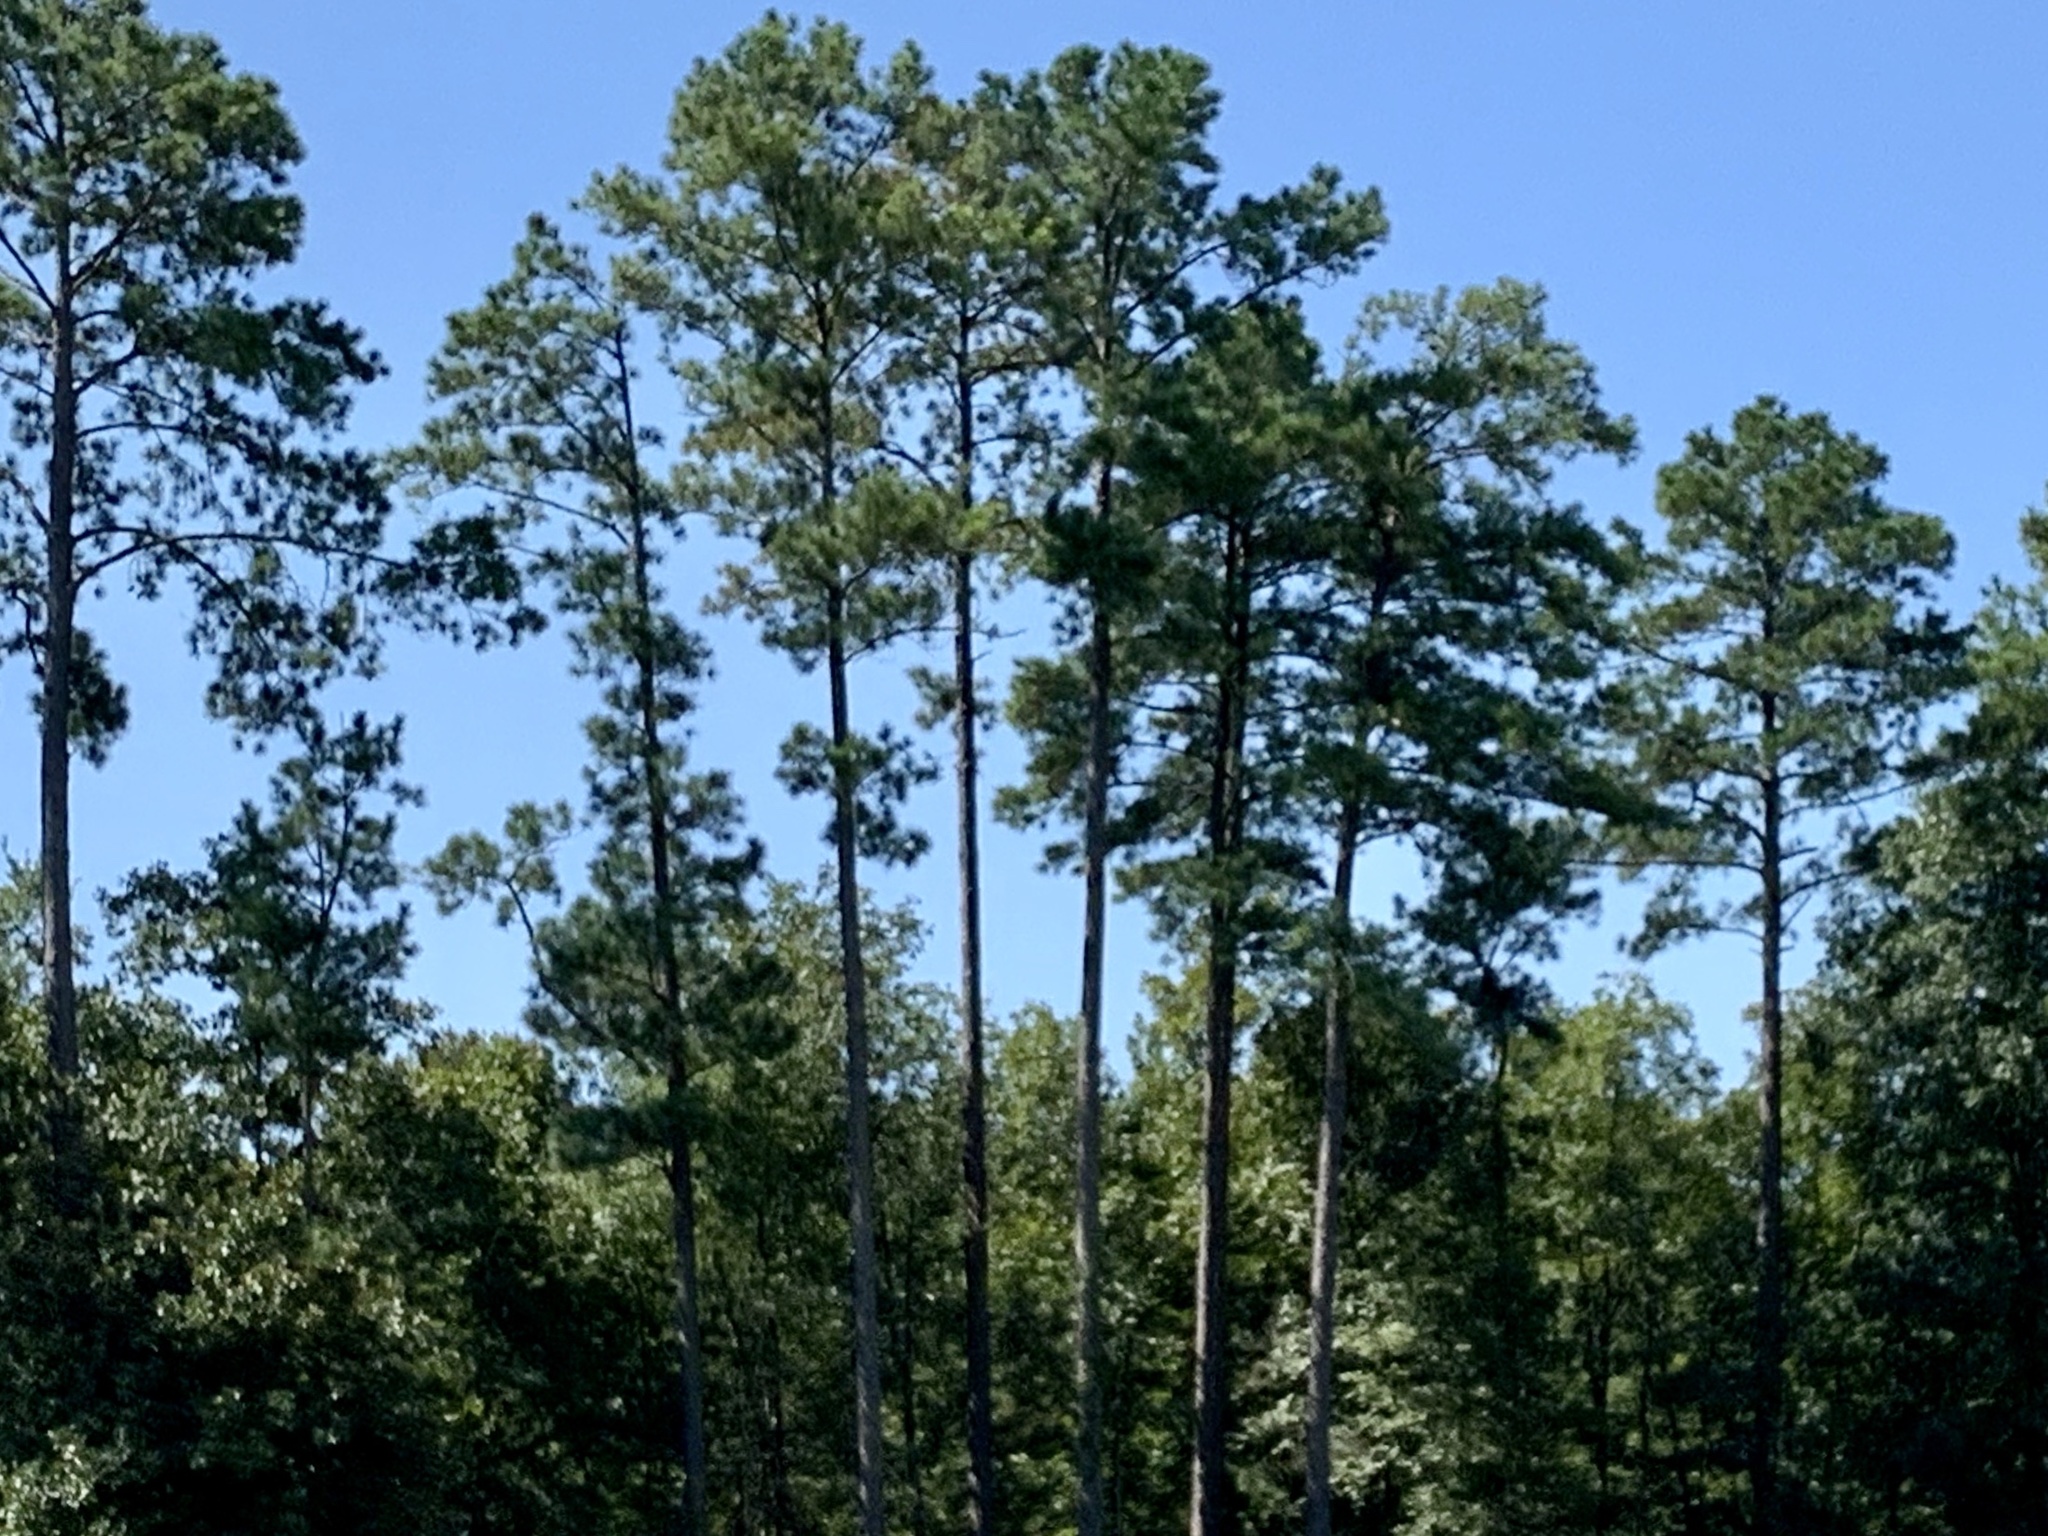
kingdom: Plantae
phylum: Tracheophyta
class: Pinopsida
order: Pinales
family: Pinaceae
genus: Pinus
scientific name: Pinus taeda
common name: Loblolly pine
